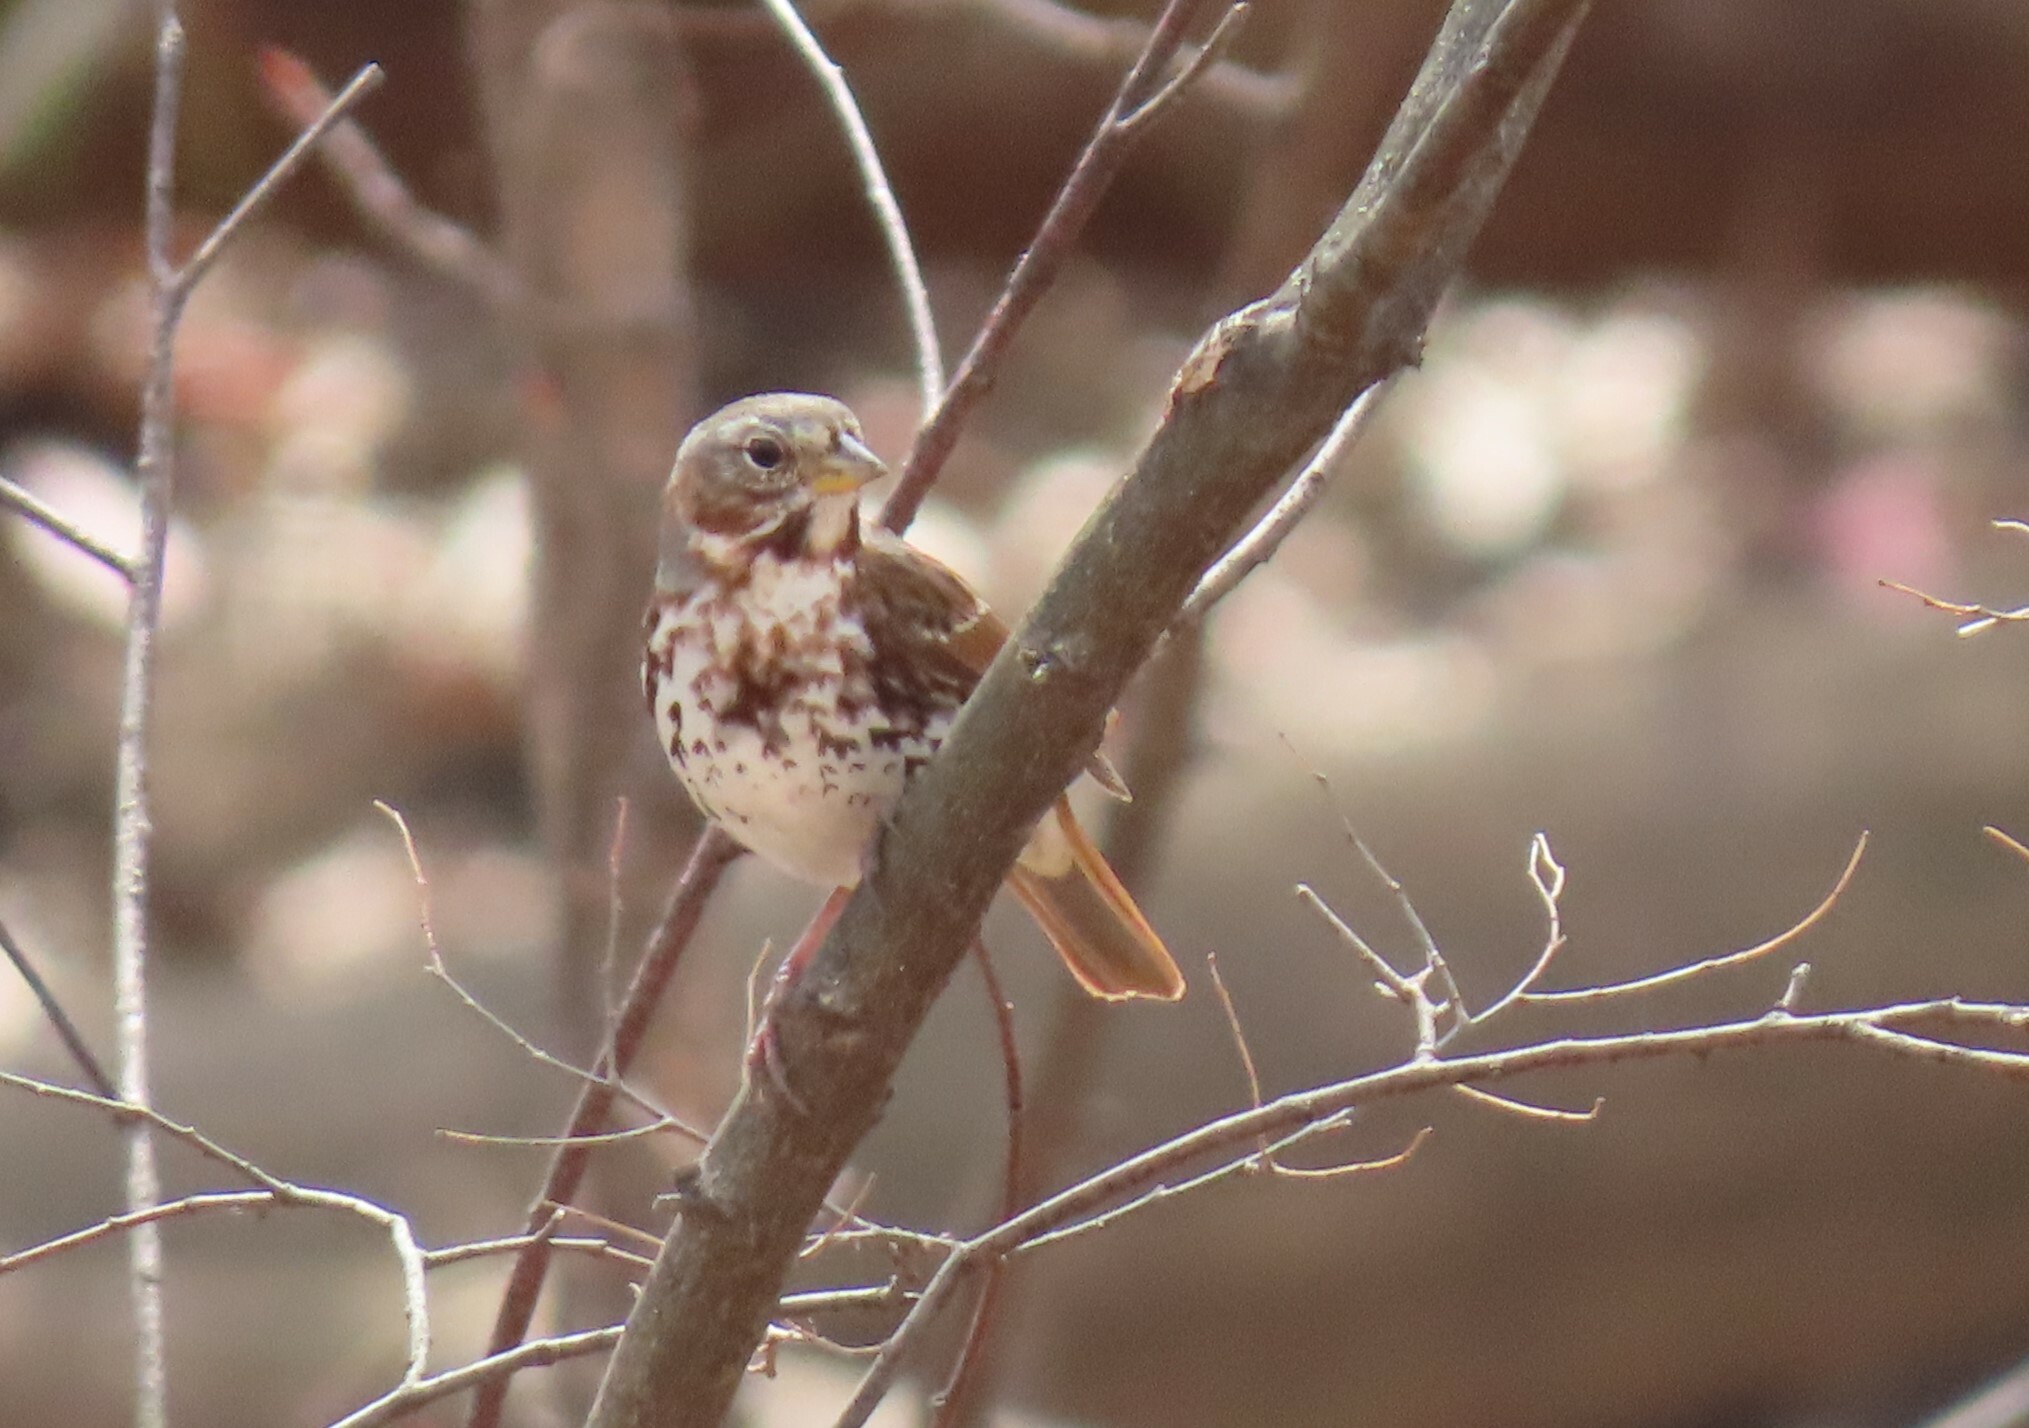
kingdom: Animalia
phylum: Chordata
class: Aves
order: Passeriformes
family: Passerellidae
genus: Passerella
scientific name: Passerella iliaca
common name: Fox sparrow
